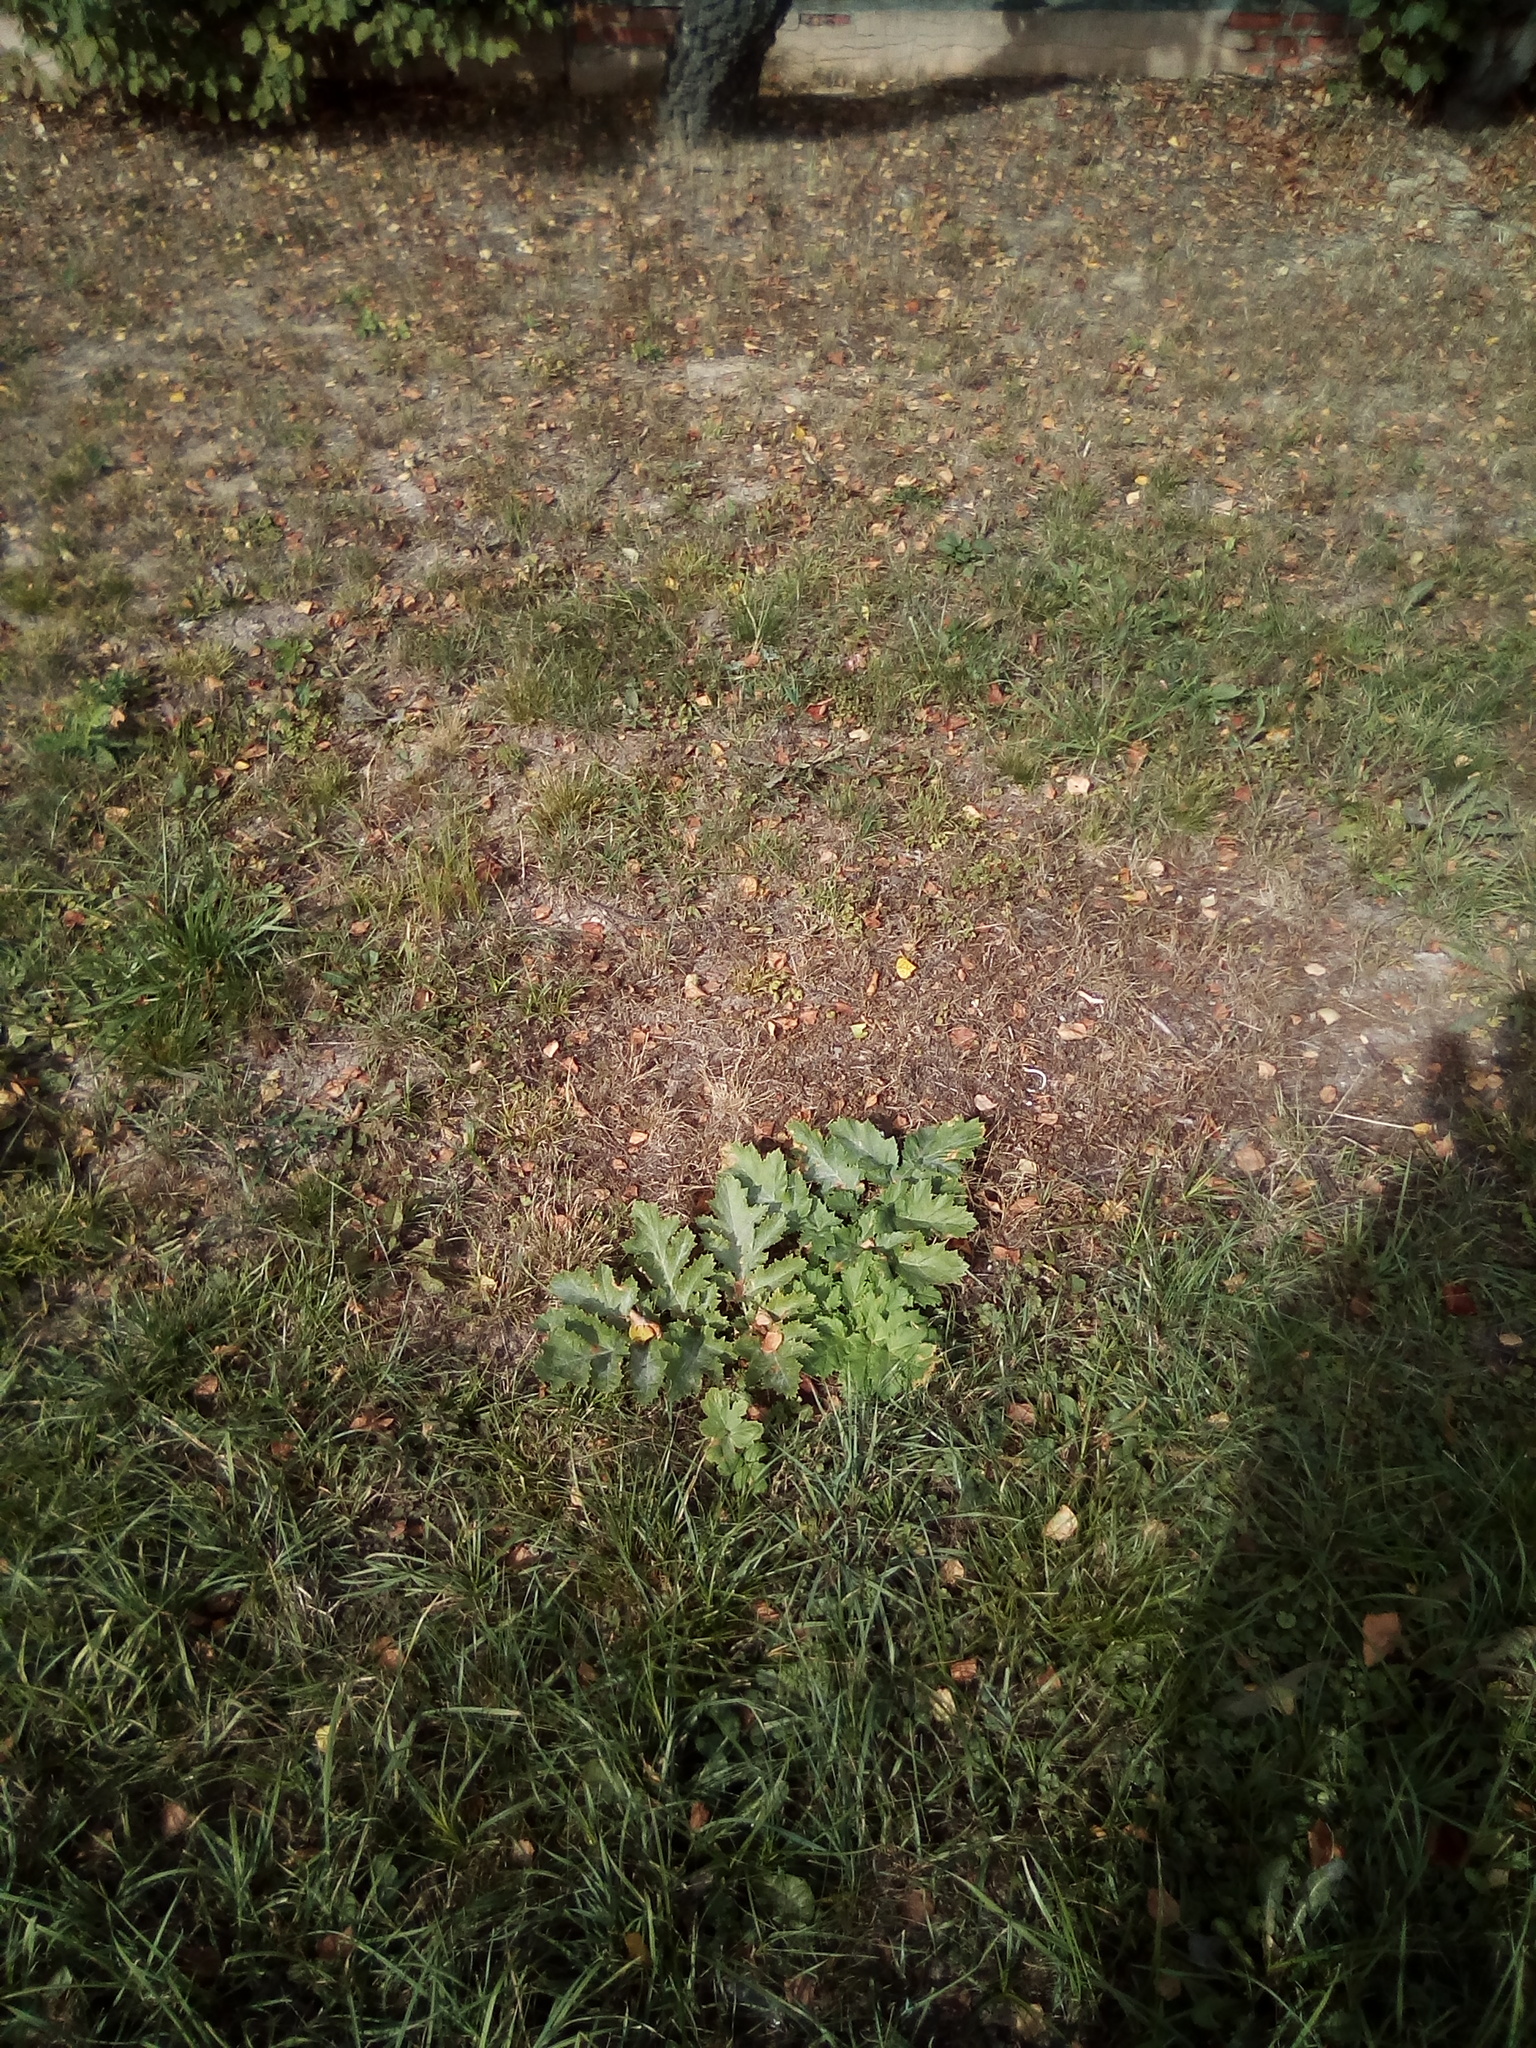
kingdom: Plantae
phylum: Tracheophyta
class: Magnoliopsida
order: Apiales
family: Apiaceae
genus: Heracleum
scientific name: Heracleum sosnowskyi
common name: Sosnowsky's hogweed
